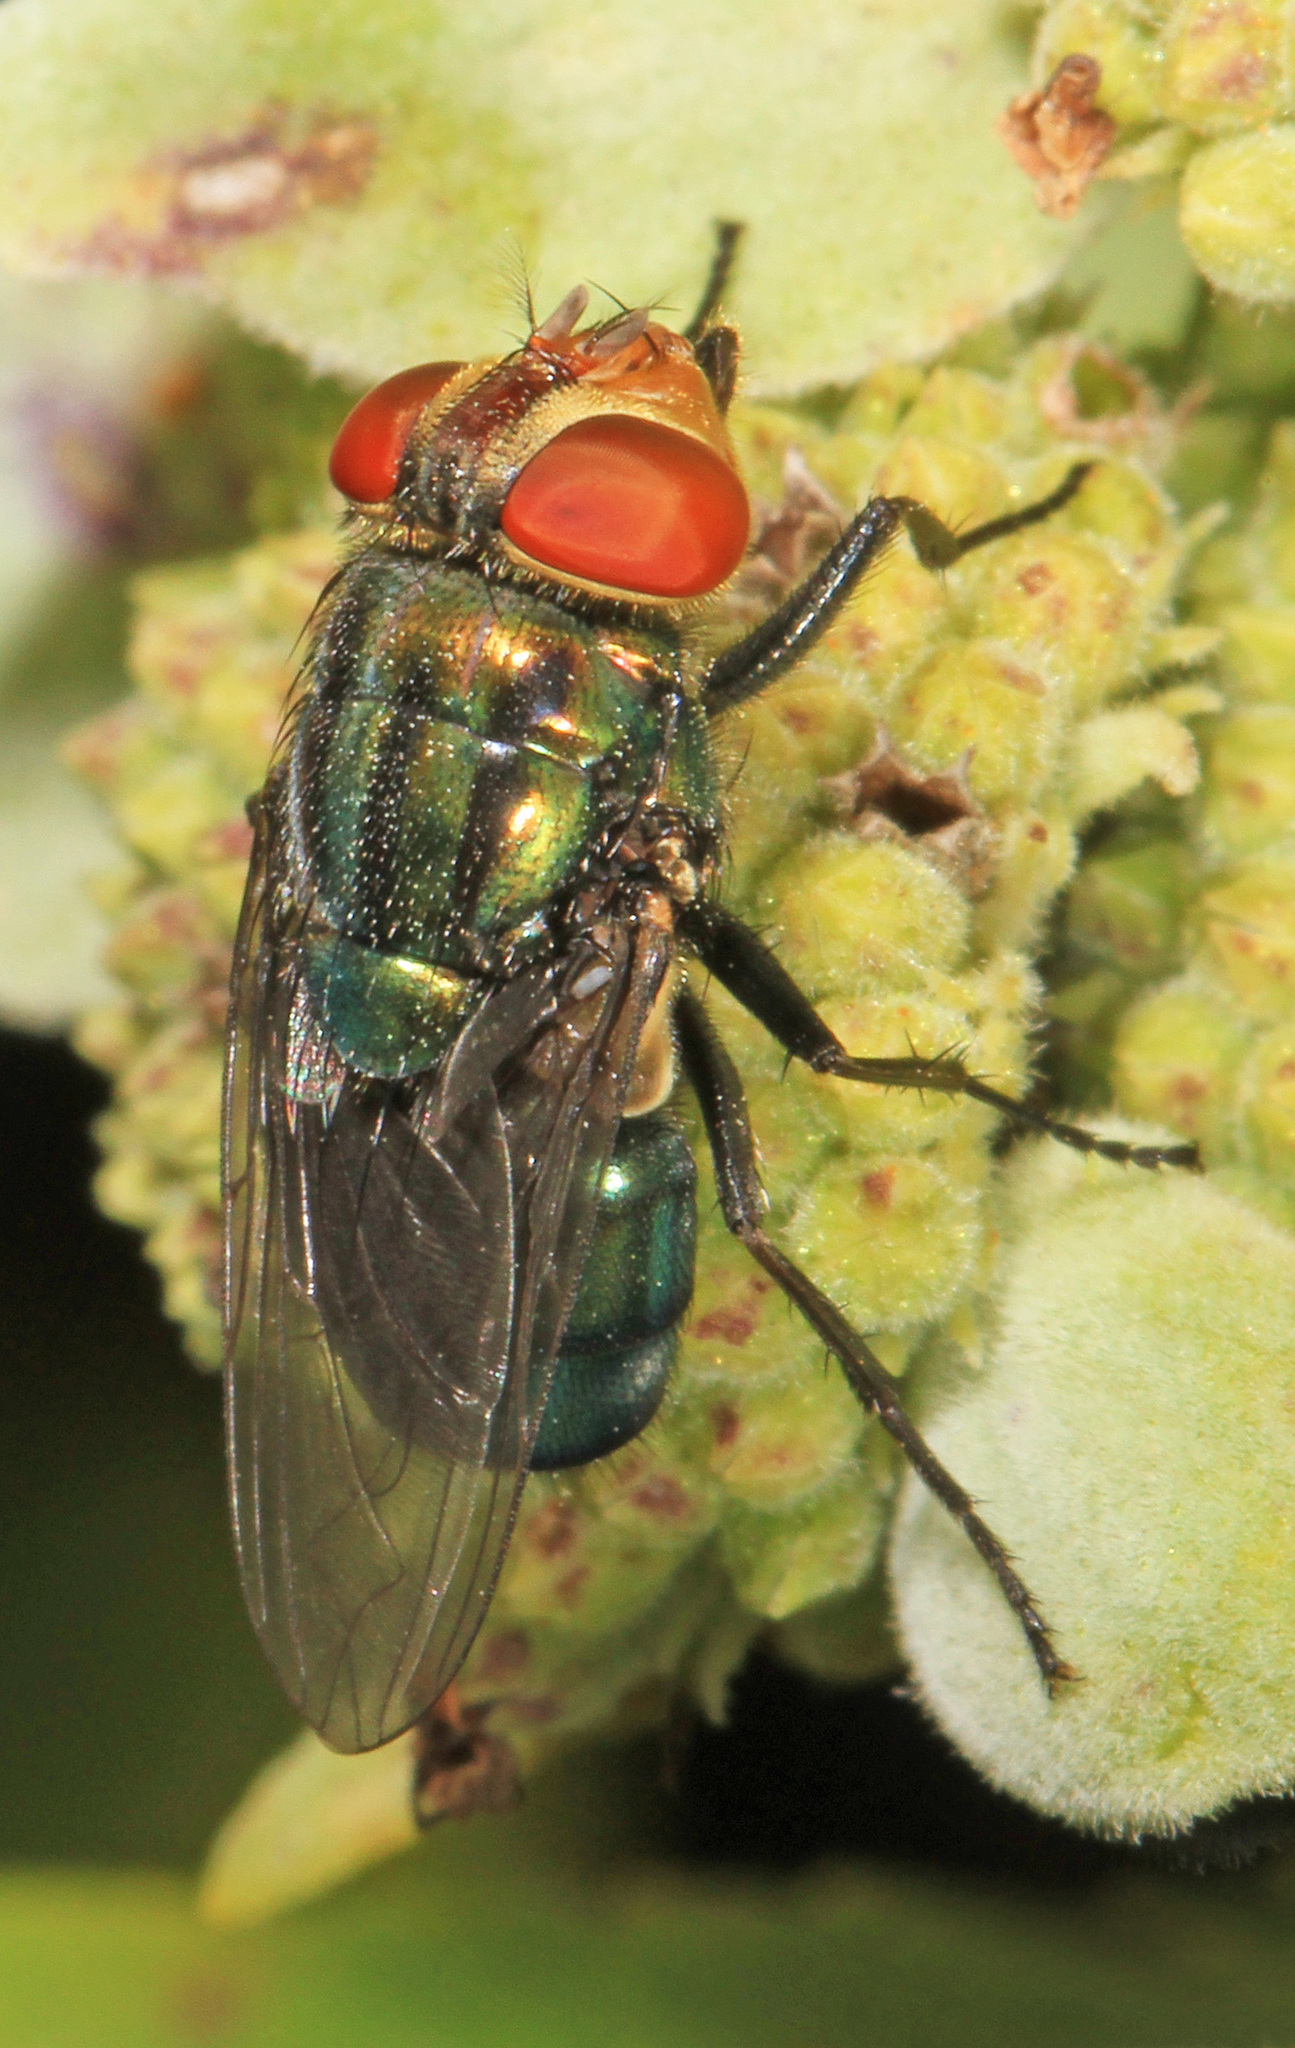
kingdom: Animalia
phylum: Arthropoda
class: Insecta
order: Diptera
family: Calliphoridae
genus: Cochliomyia
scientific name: Cochliomyia macellaria
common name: Secondary screwworm
